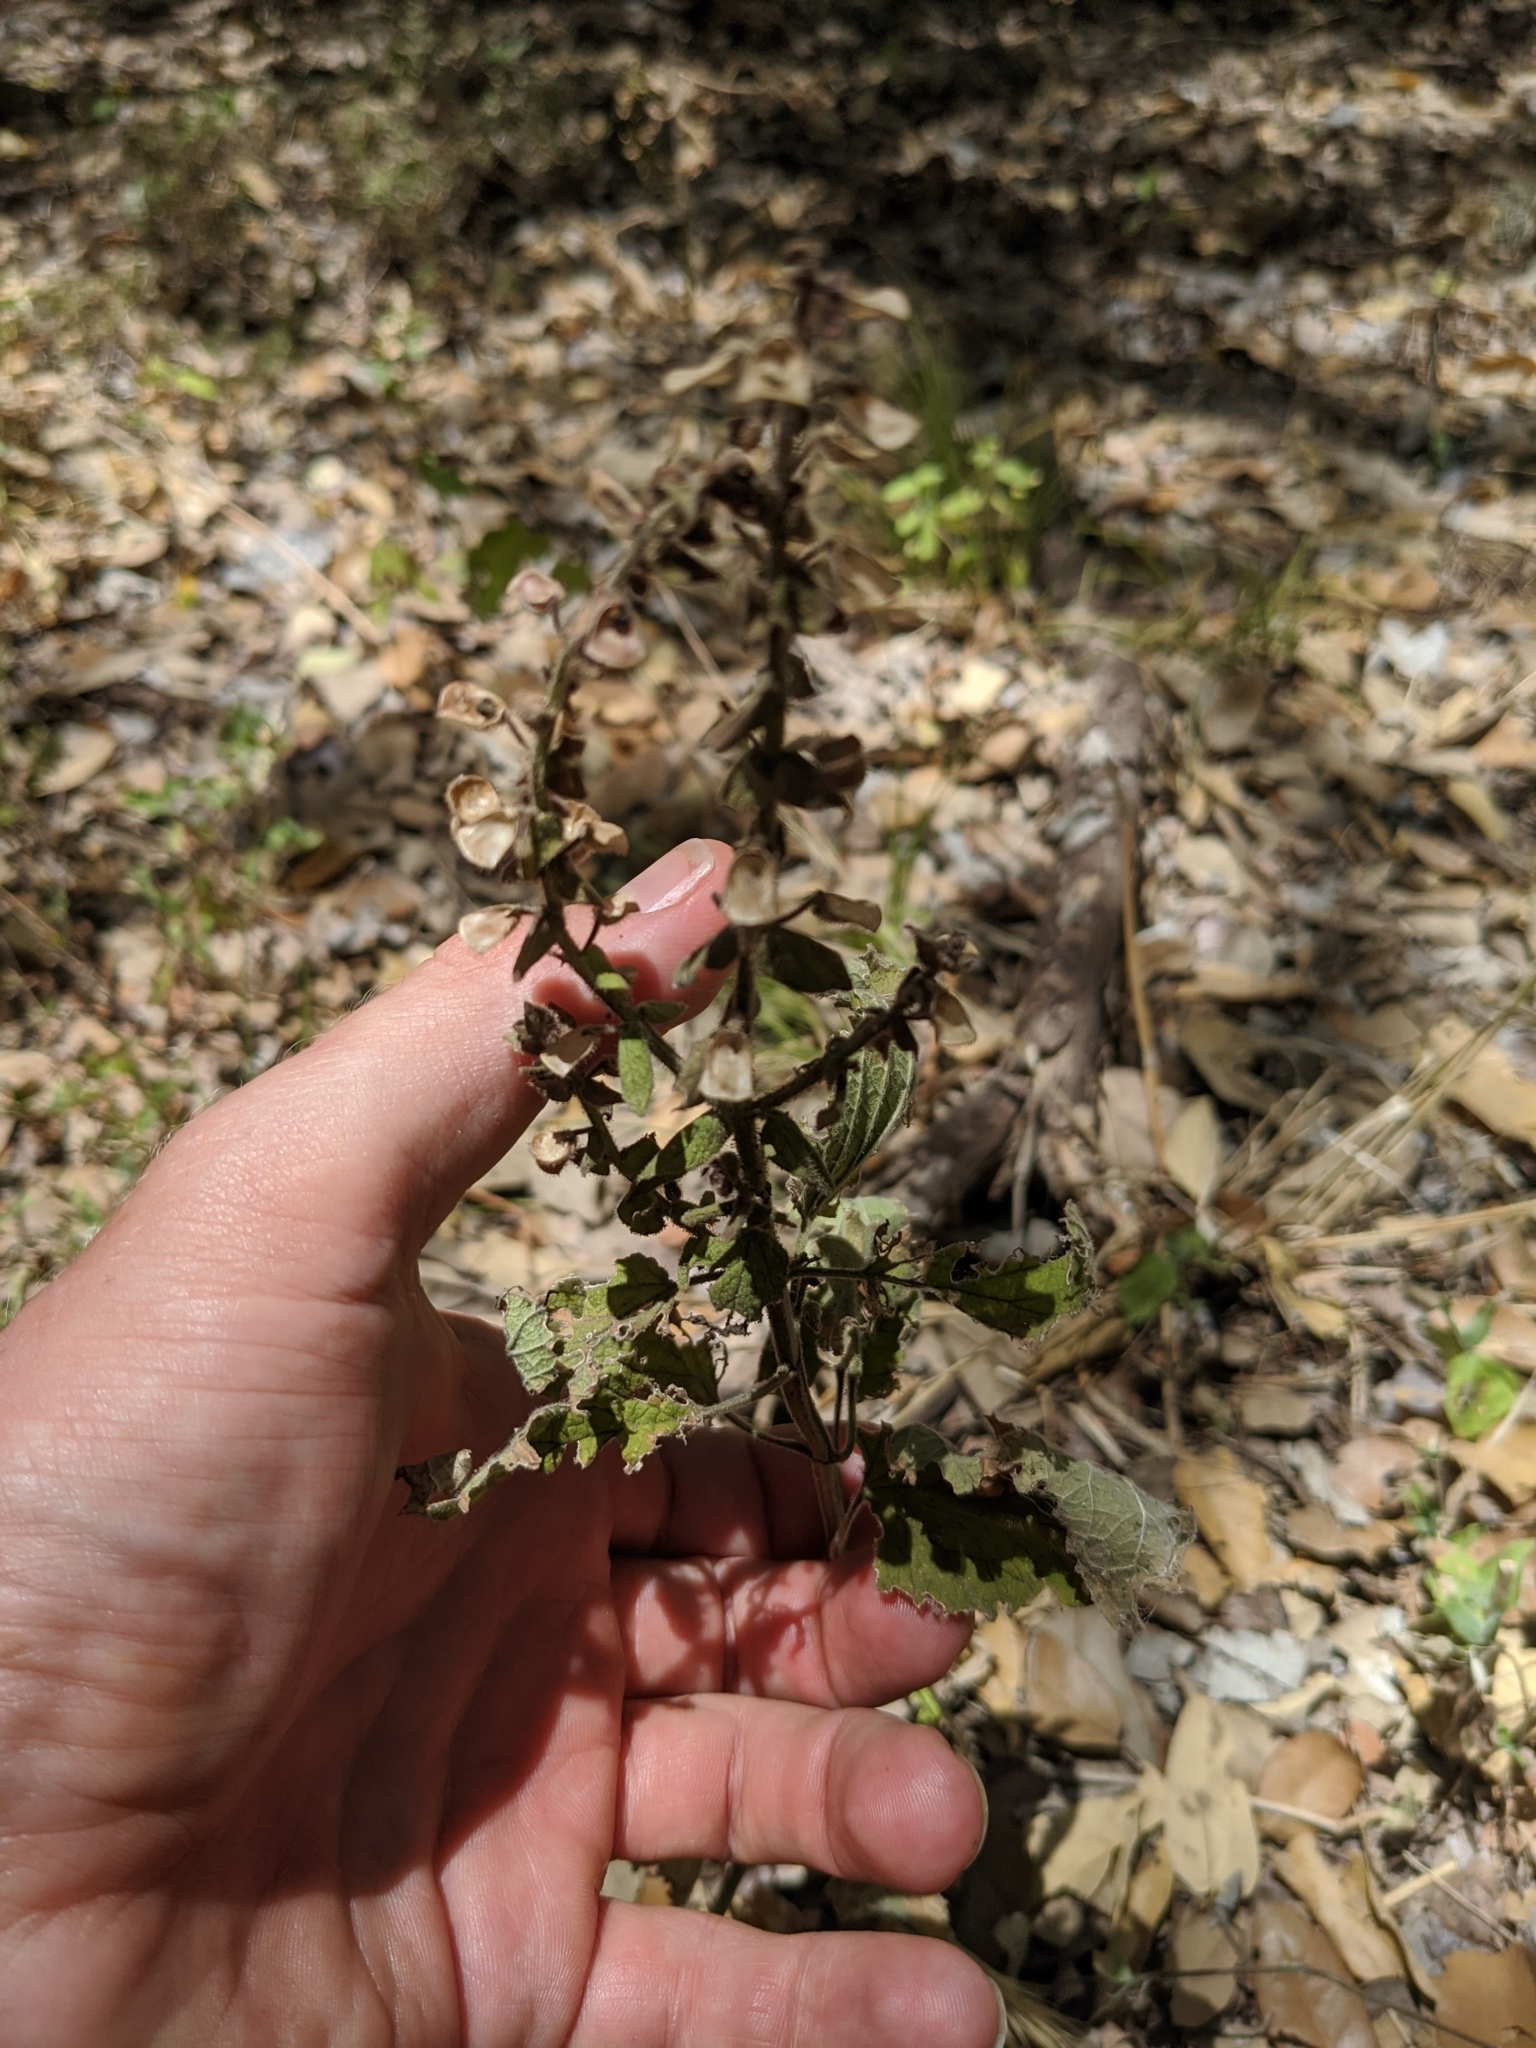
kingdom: Plantae
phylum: Tracheophyta
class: Magnoliopsida
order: Lamiales
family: Lamiaceae
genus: Scutellaria
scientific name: Scutellaria ovata
